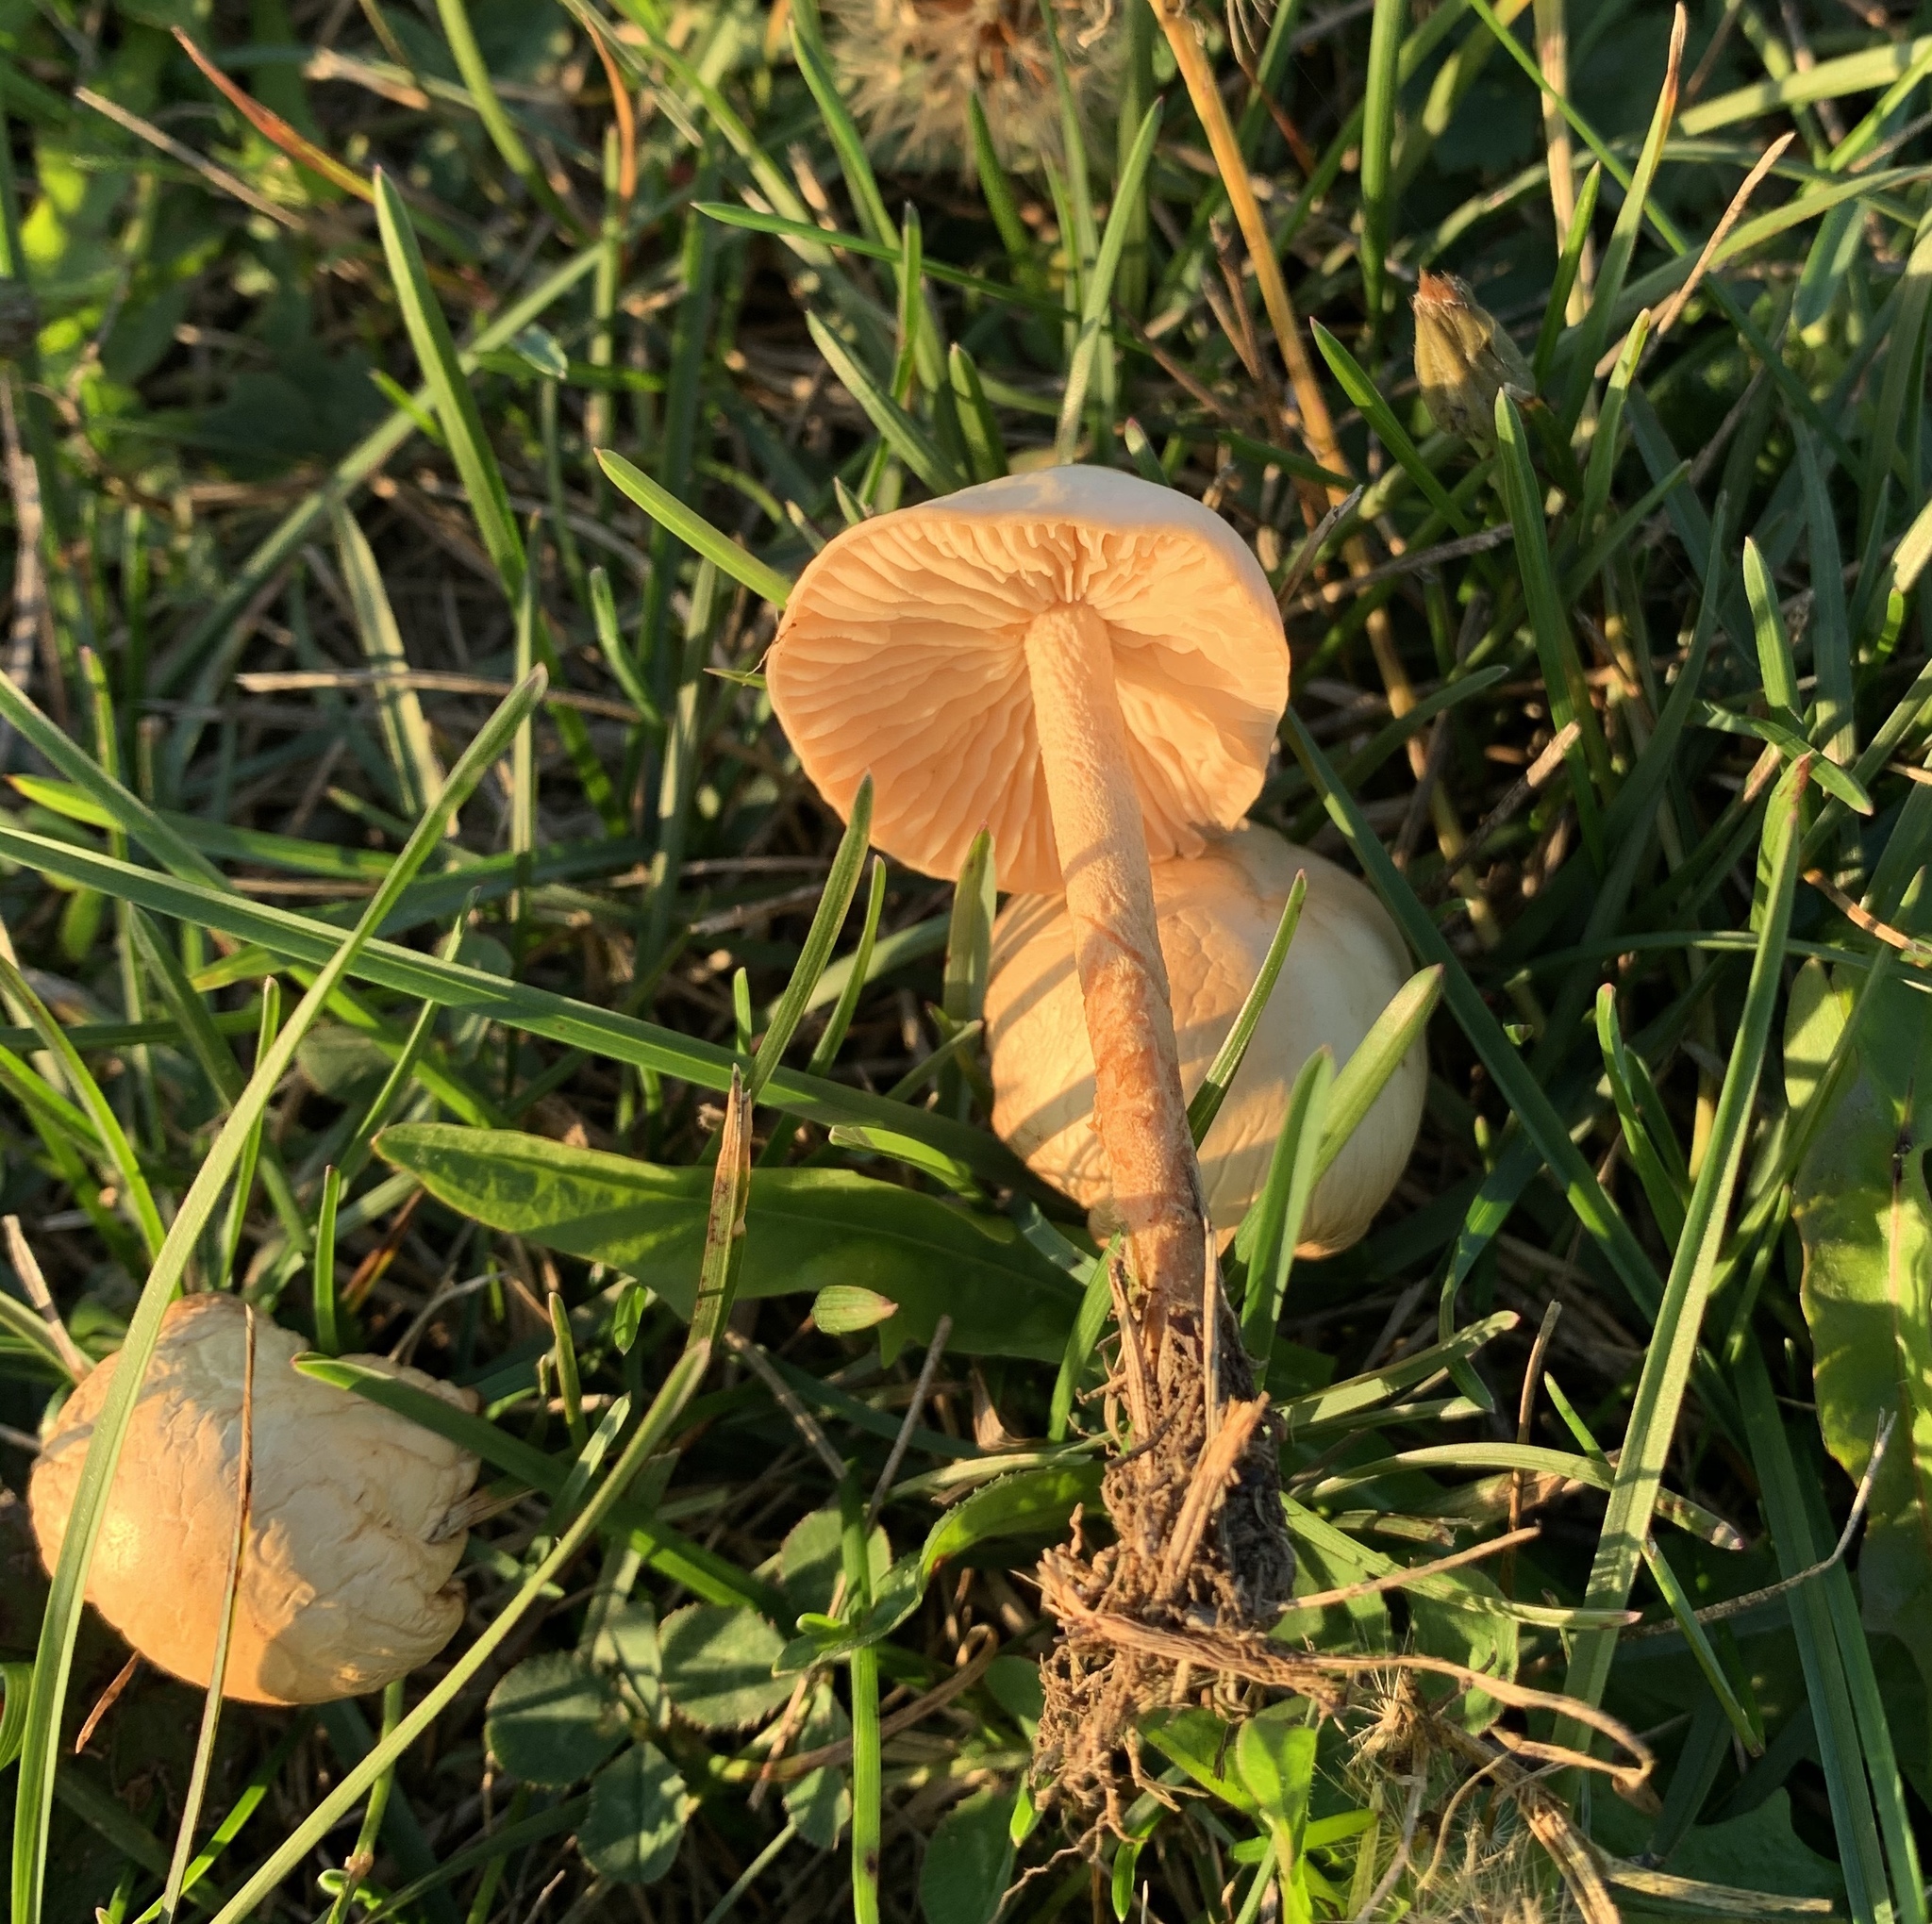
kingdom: Fungi
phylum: Basidiomycota
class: Agaricomycetes
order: Agaricales
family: Marasmiaceae
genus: Marasmius
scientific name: Marasmius oreades
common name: Fairy ring champignon
